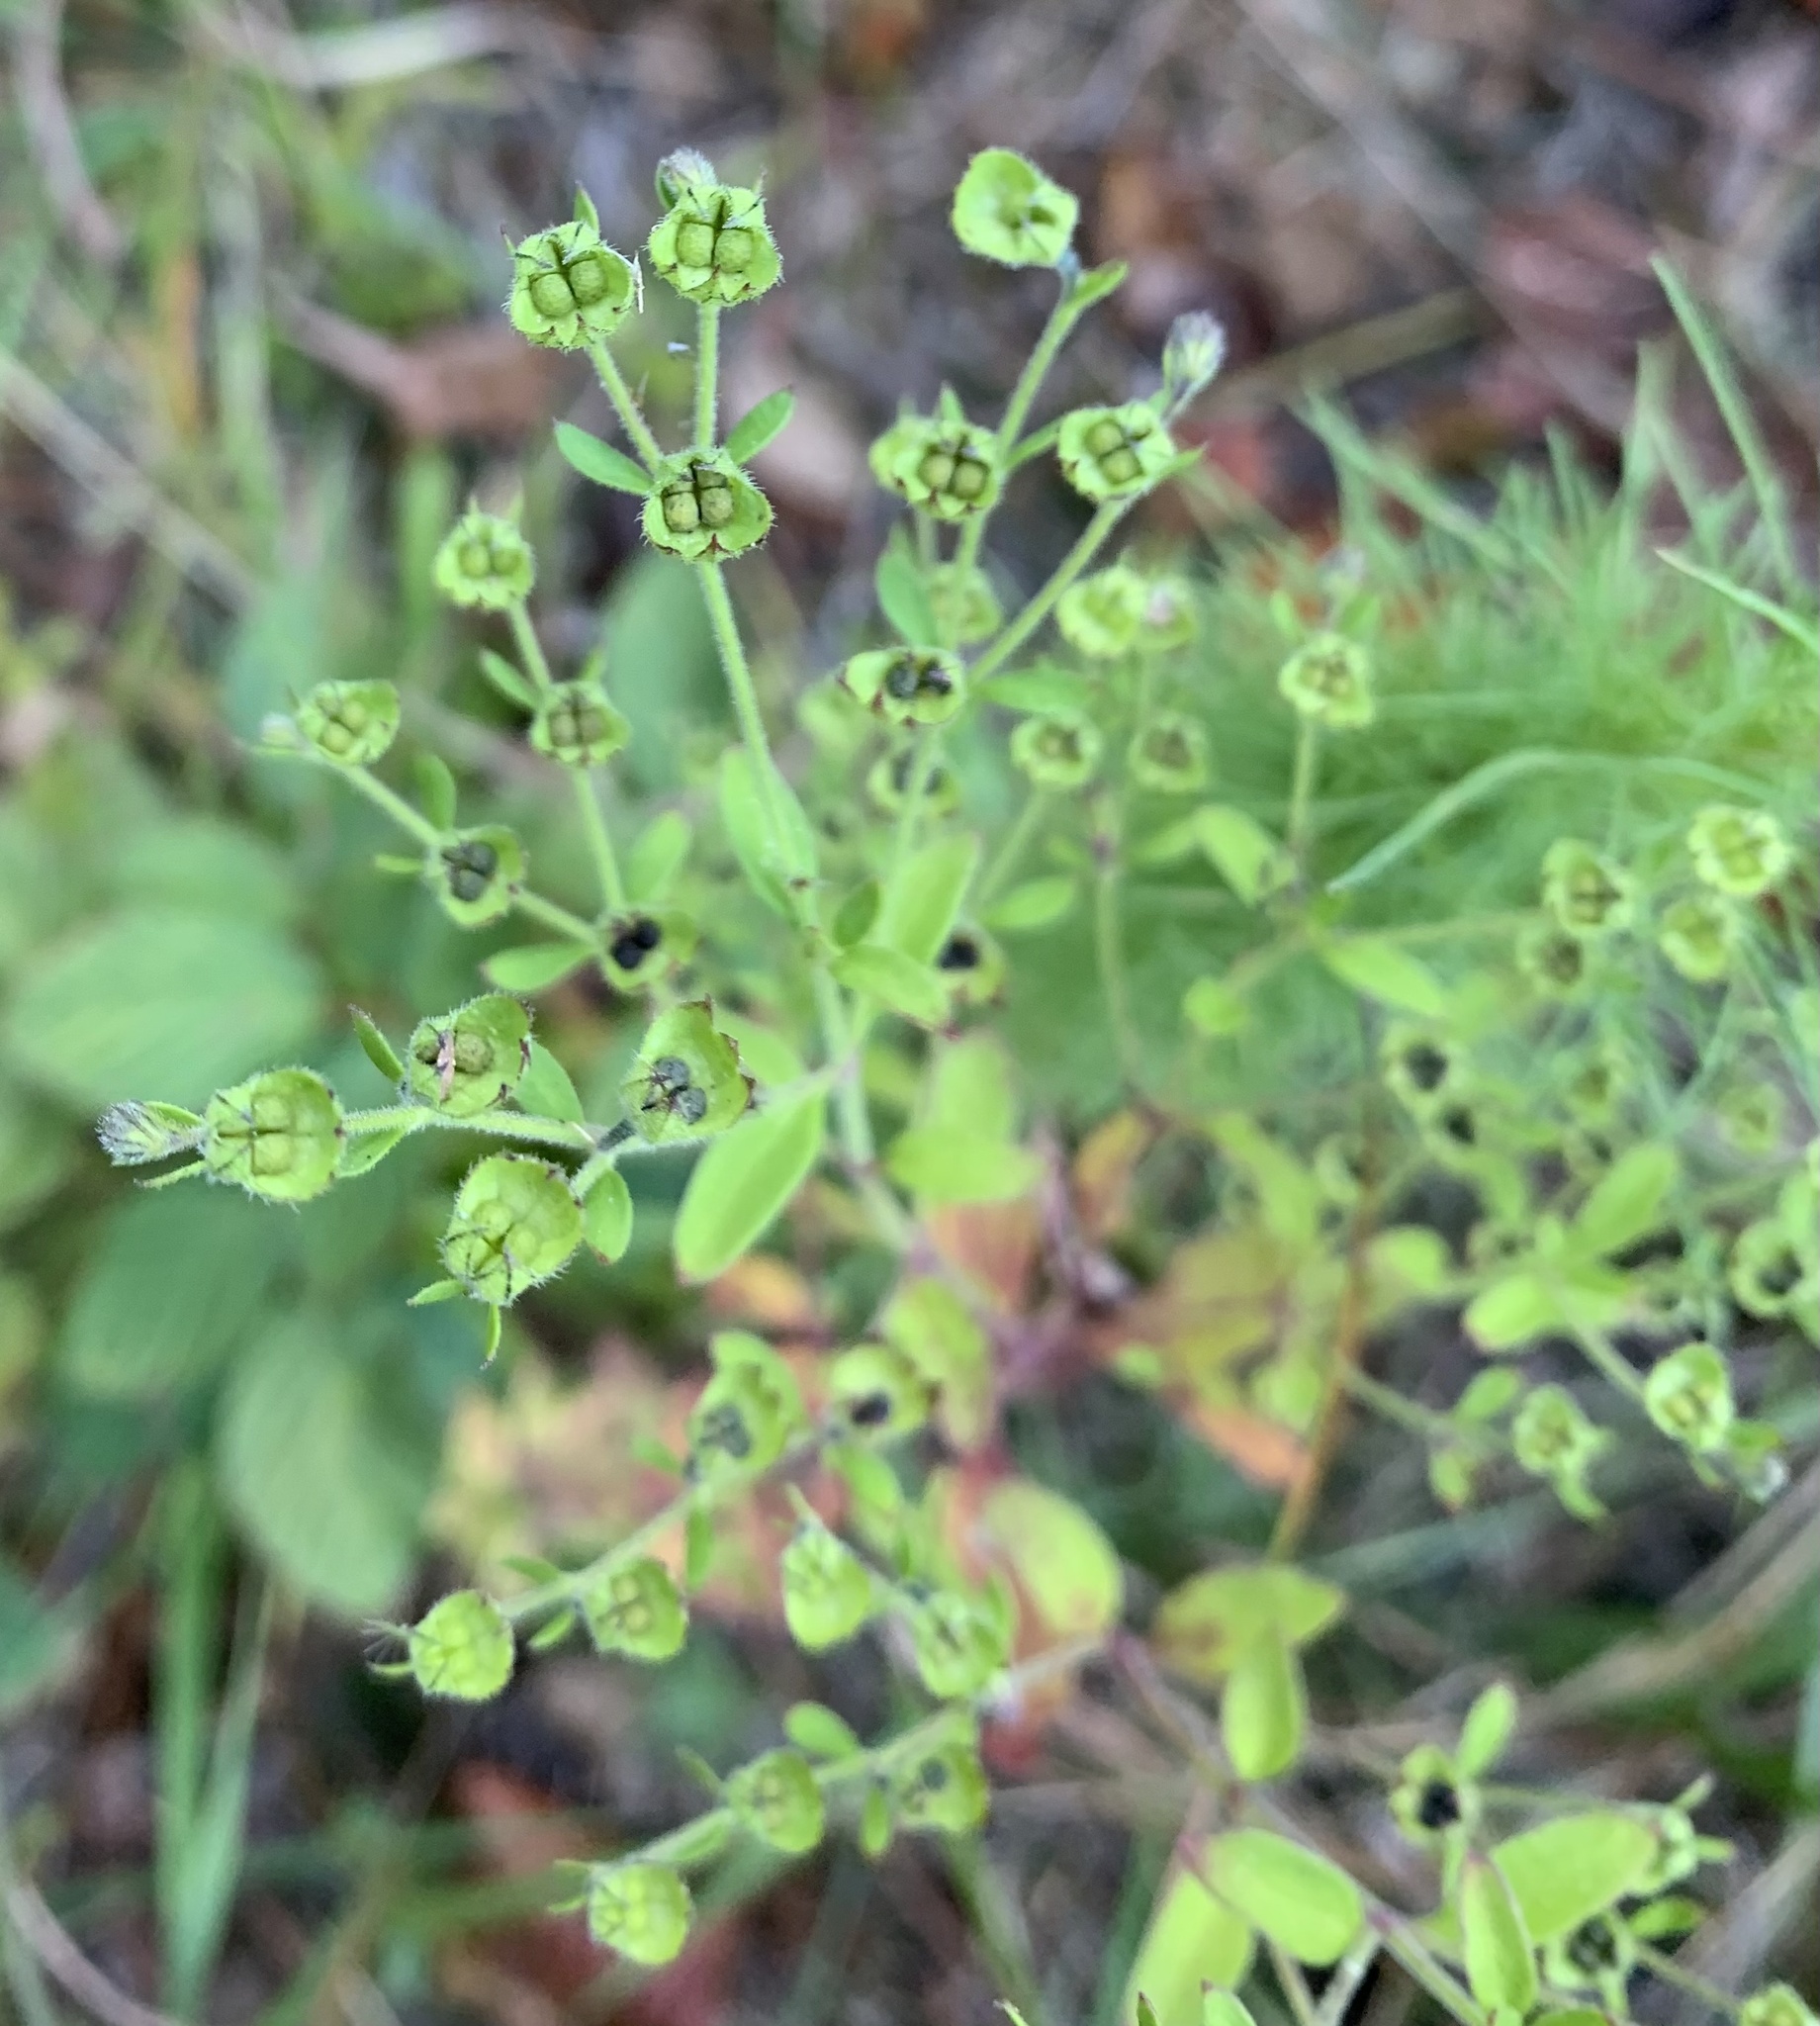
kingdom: Plantae
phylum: Tracheophyta
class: Magnoliopsida
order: Lamiales
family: Lamiaceae
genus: Trichostema
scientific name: Trichostema dichotomum
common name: Bastard pennyroyal
